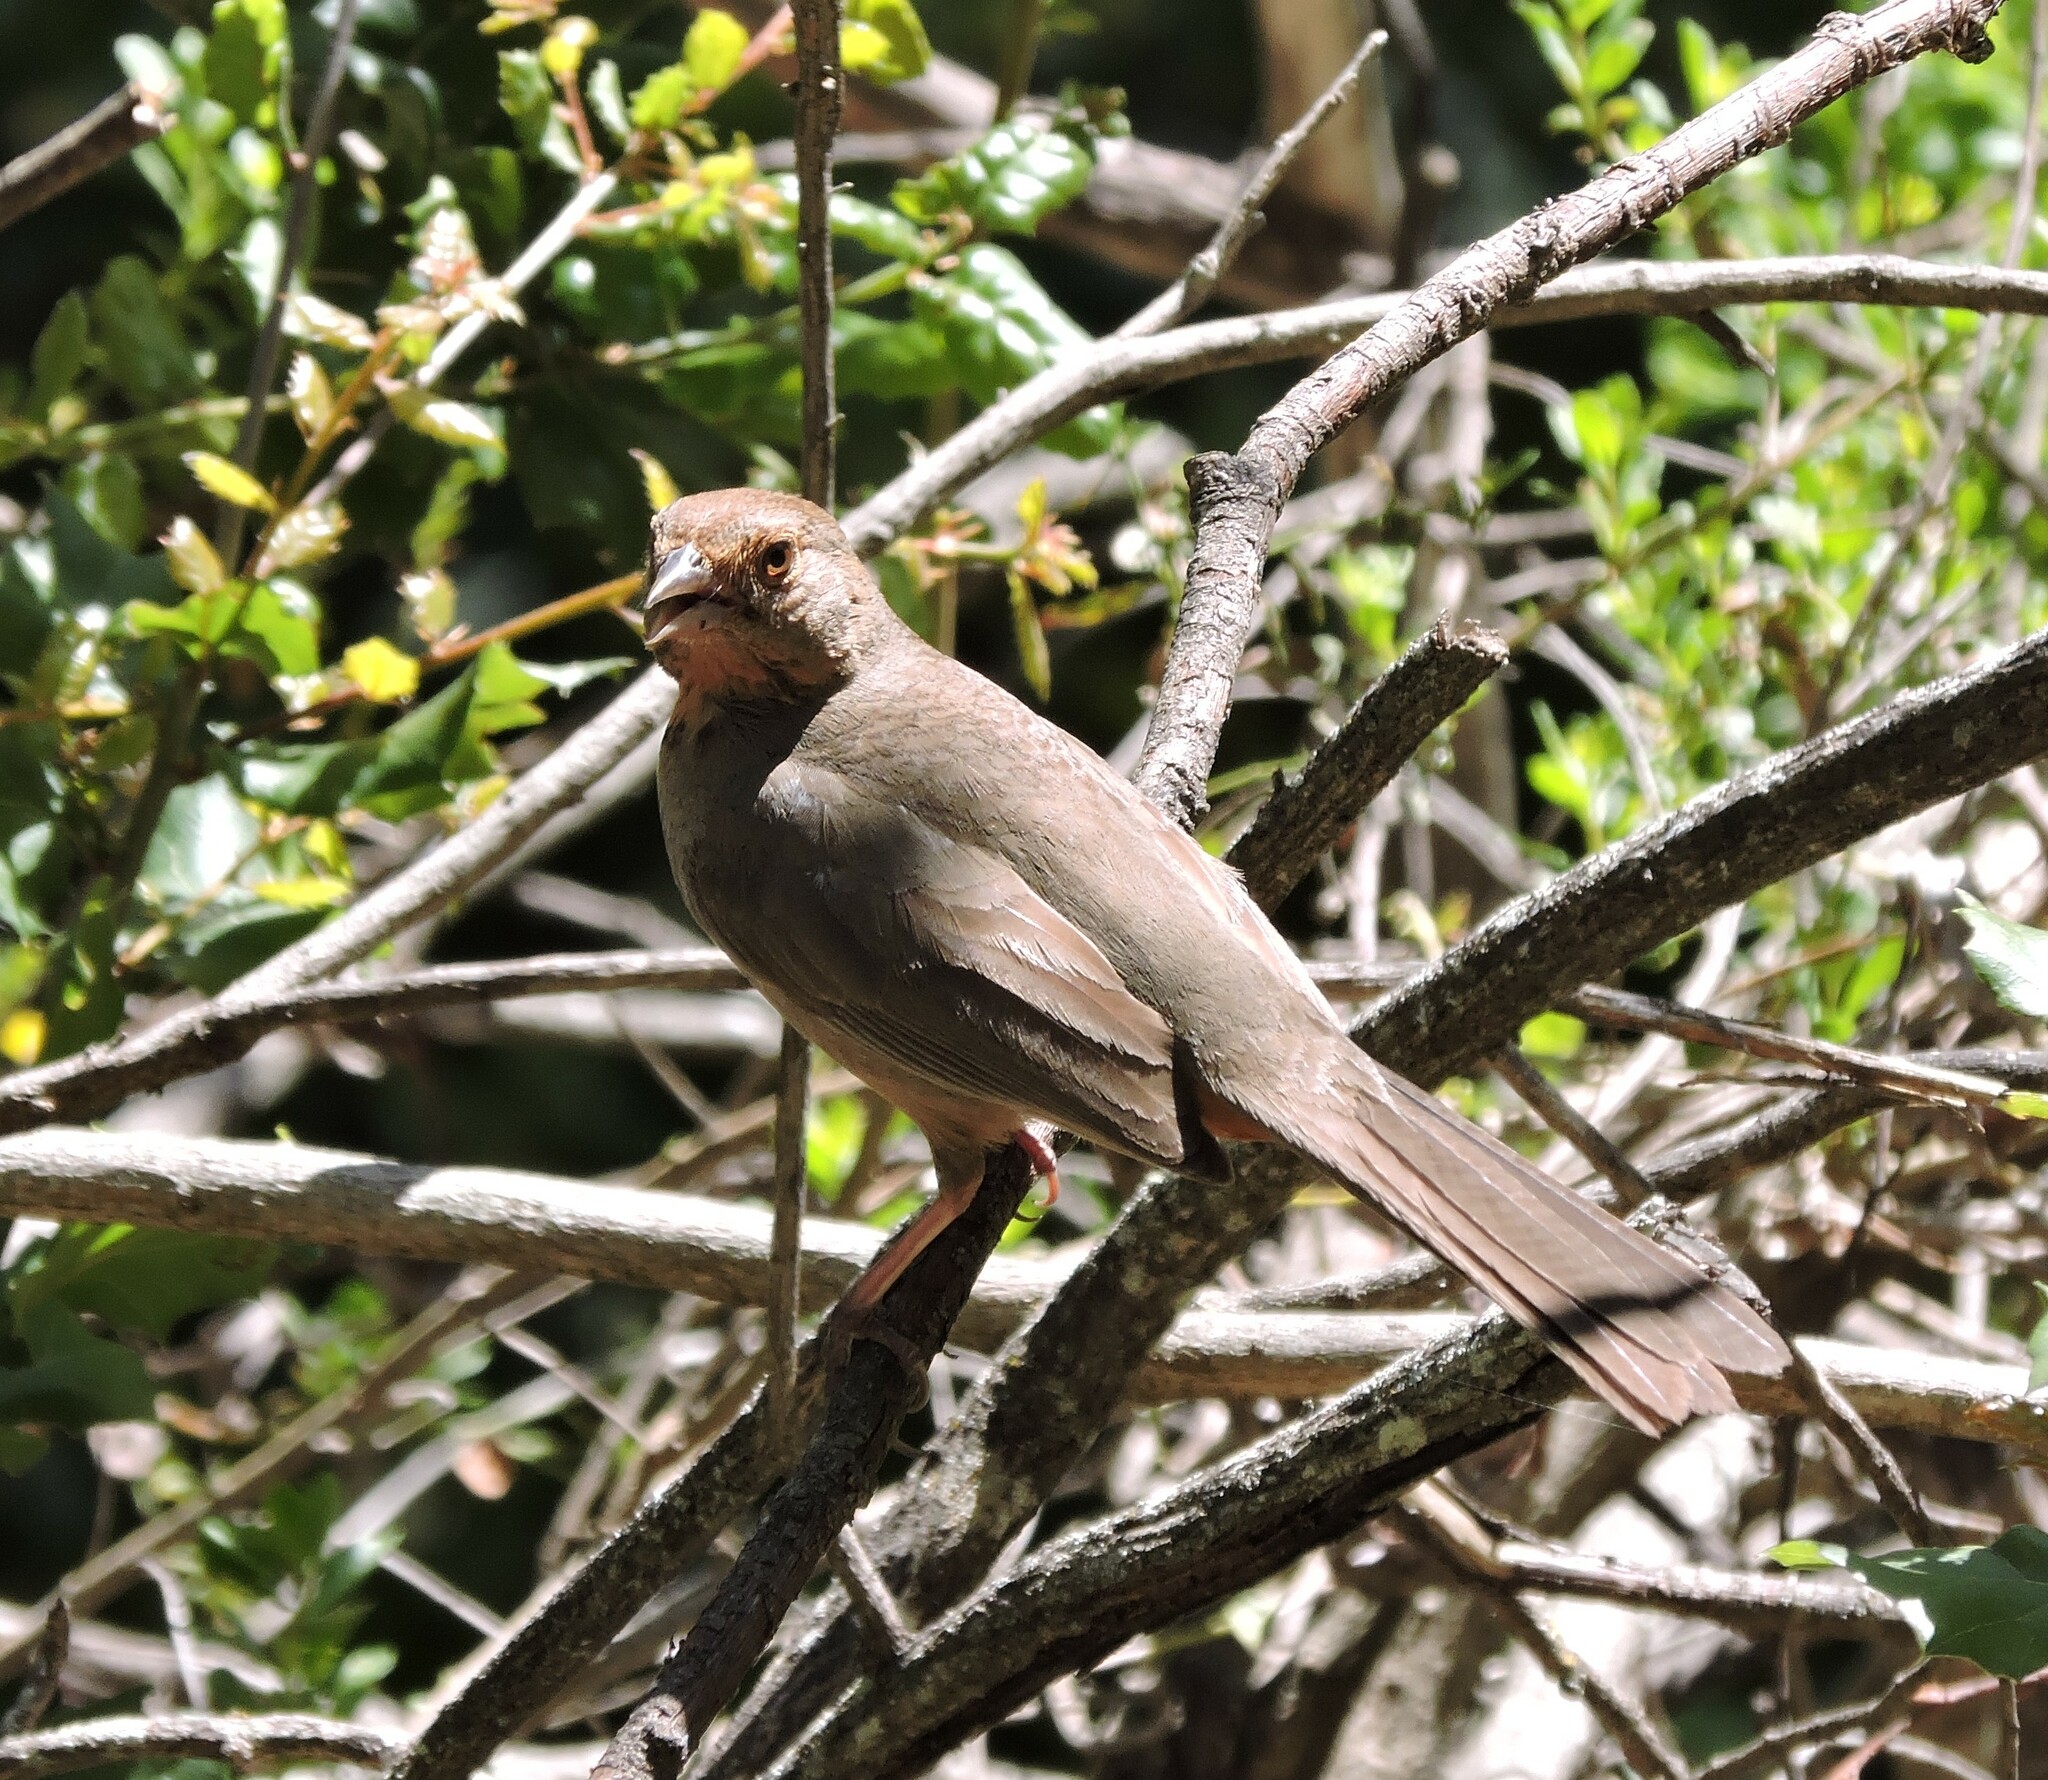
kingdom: Animalia
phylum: Chordata
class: Aves
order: Passeriformes
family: Passerellidae
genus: Melozone
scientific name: Melozone crissalis
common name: California towhee
